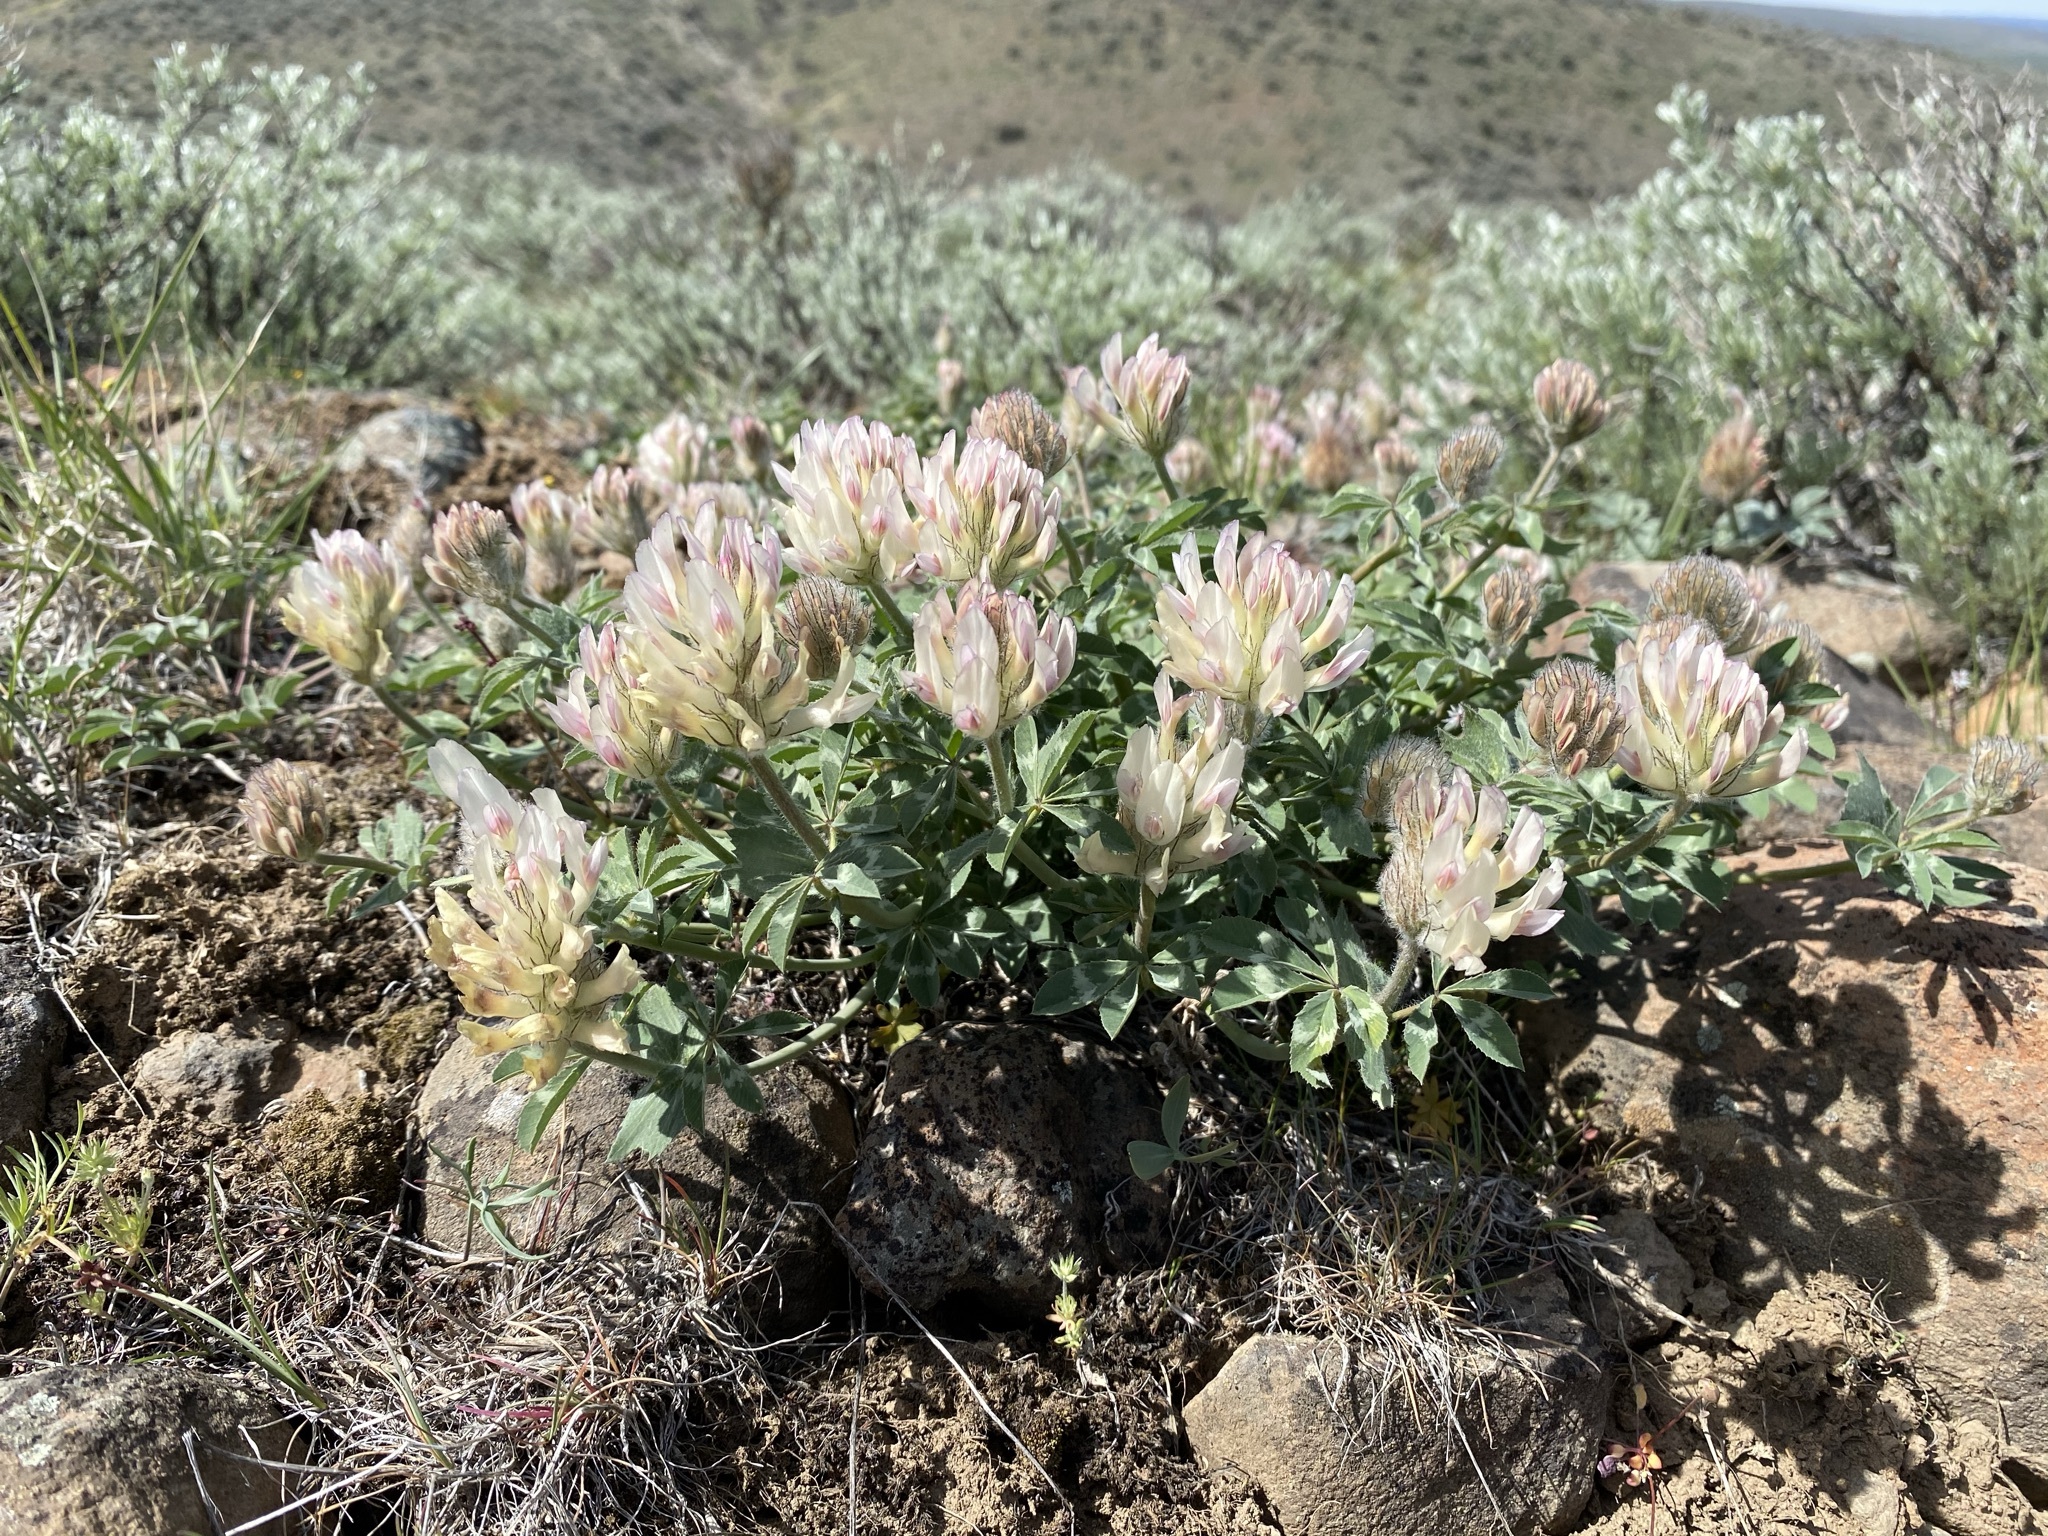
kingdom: Plantae
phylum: Tracheophyta
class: Magnoliopsida
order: Fabales
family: Fabaceae
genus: Trifolium
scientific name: Trifolium macrocephalum
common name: Large-head clover
